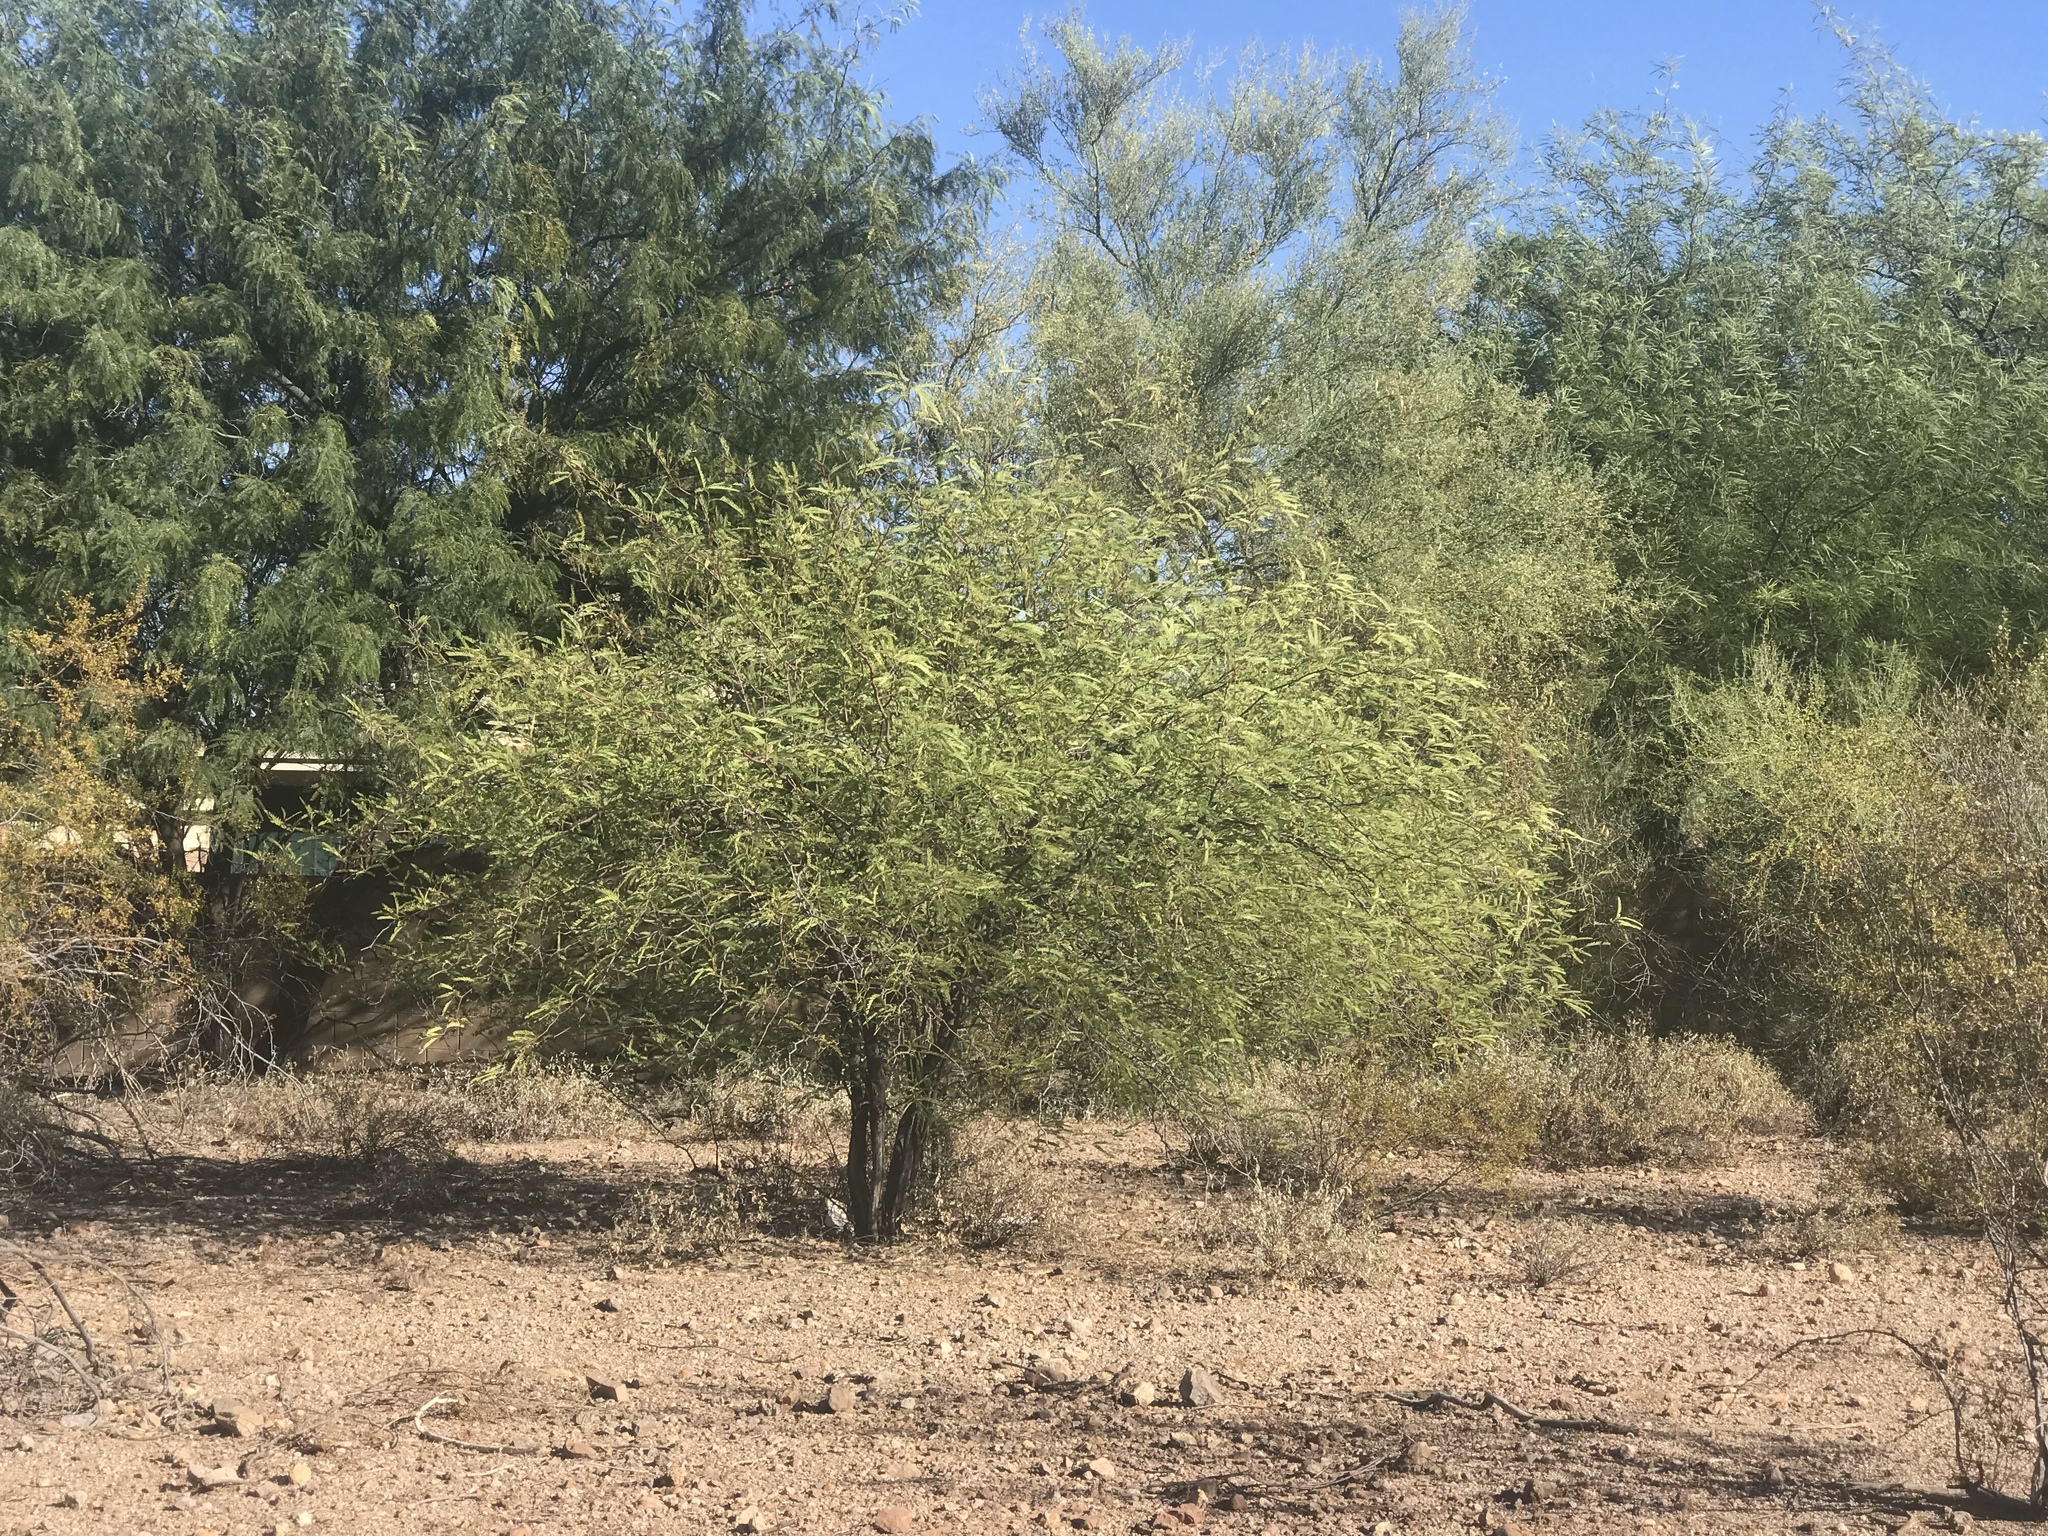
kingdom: Plantae
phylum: Tracheophyta
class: Magnoliopsida
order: Fabales
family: Fabaceae
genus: Prosopis
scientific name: Prosopis velutina
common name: Velvet mesquite
